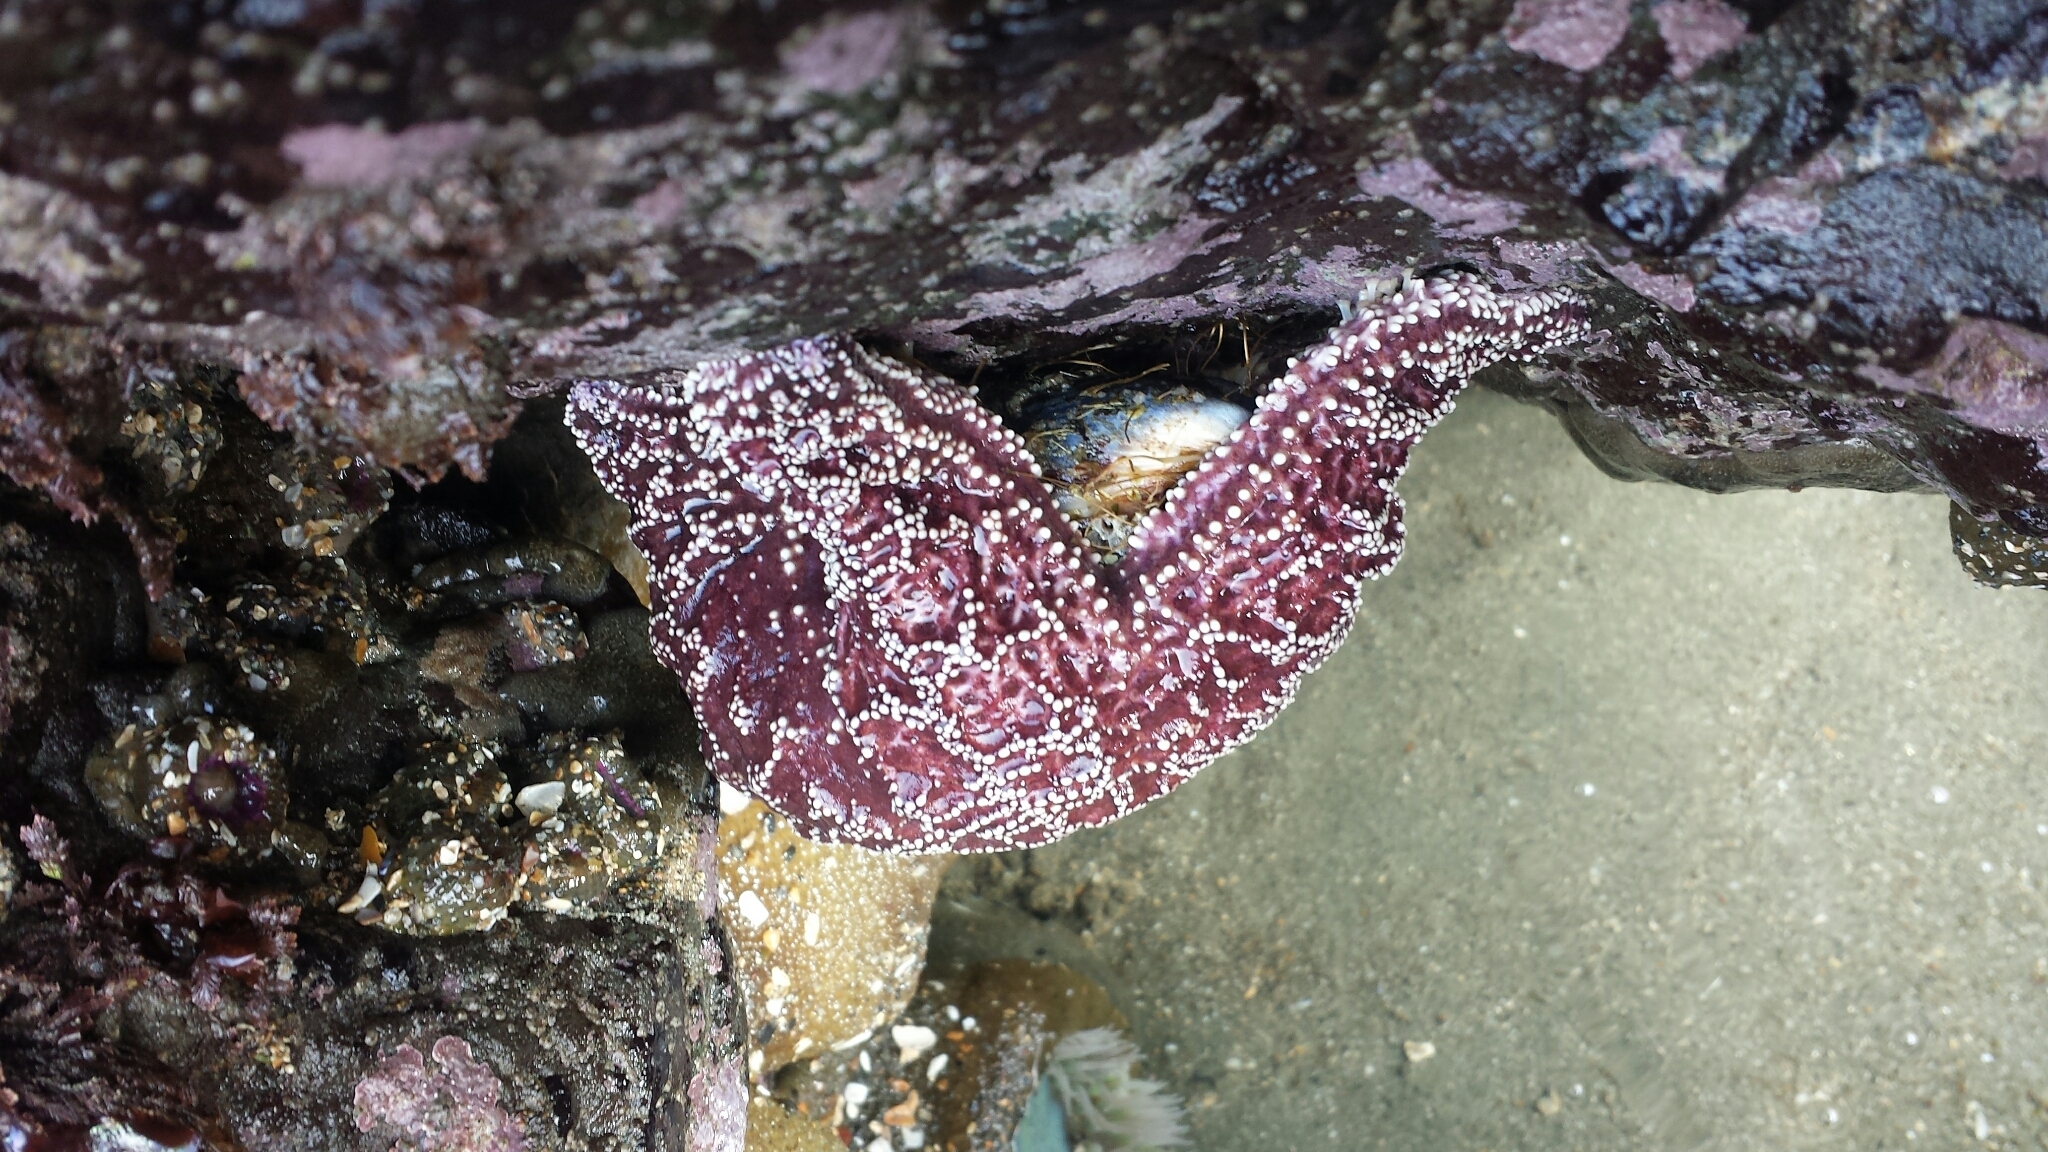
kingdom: Animalia
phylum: Echinodermata
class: Asteroidea
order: Forcipulatida
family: Asteriidae
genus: Pisaster
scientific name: Pisaster ochraceus
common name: Ochre stars
